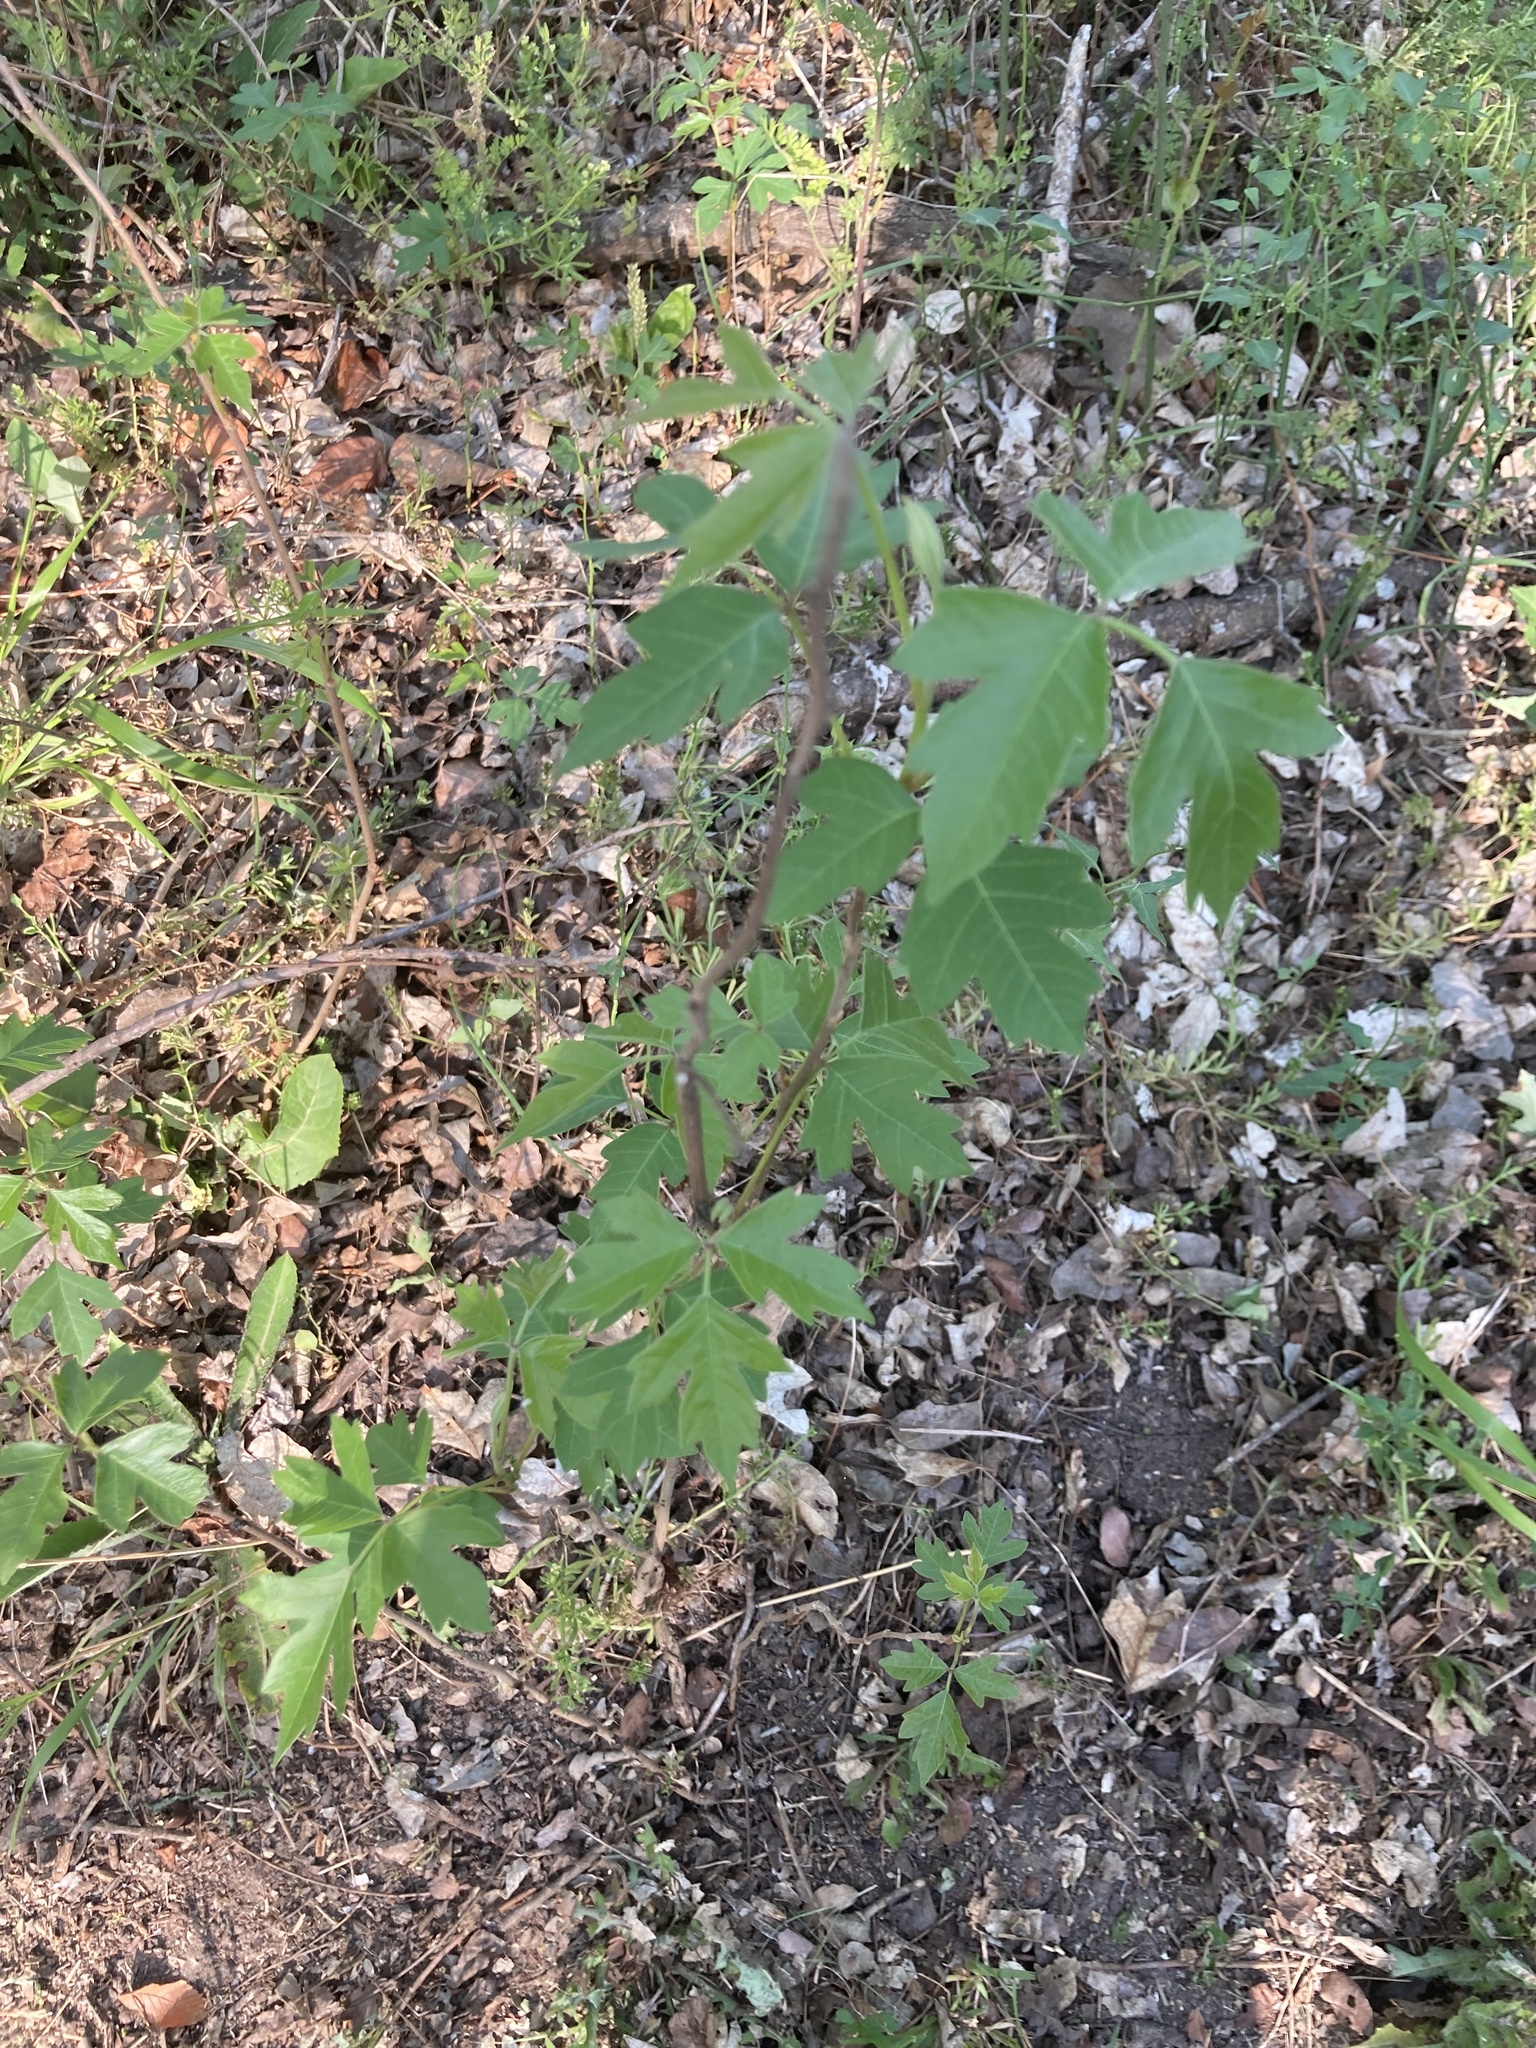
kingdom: Plantae
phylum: Tracheophyta
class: Magnoliopsida
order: Sapindales
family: Sapindaceae
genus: Acer
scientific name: Acer negundo
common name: Ashleaf maple
